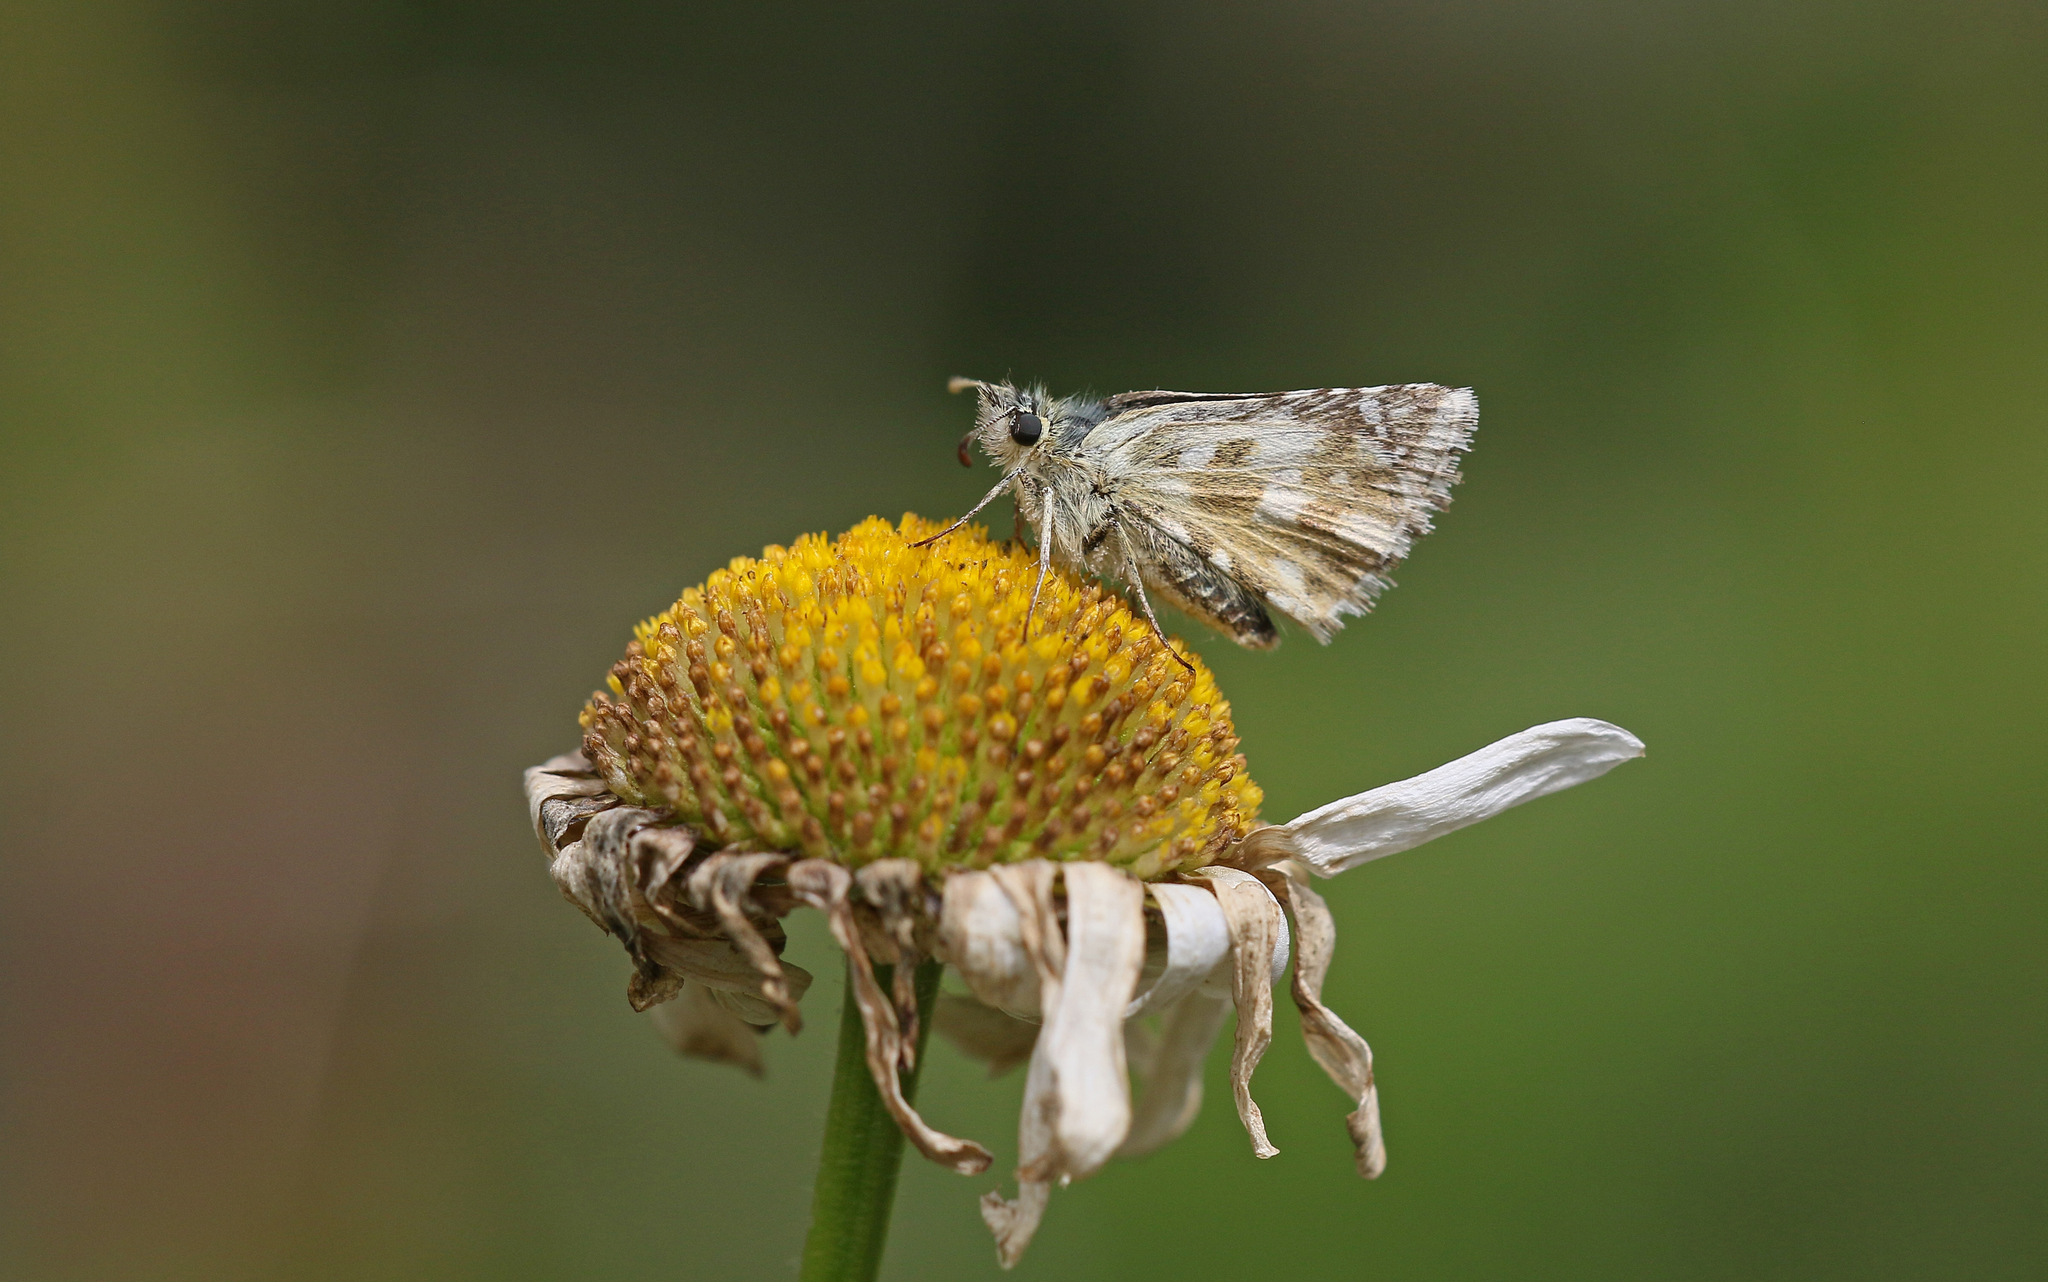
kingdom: Animalia
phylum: Arthropoda
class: Insecta
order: Lepidoptera
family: Hesperiidae
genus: Pyrgus
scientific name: Pyrgus carlinae
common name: Carline skipper
